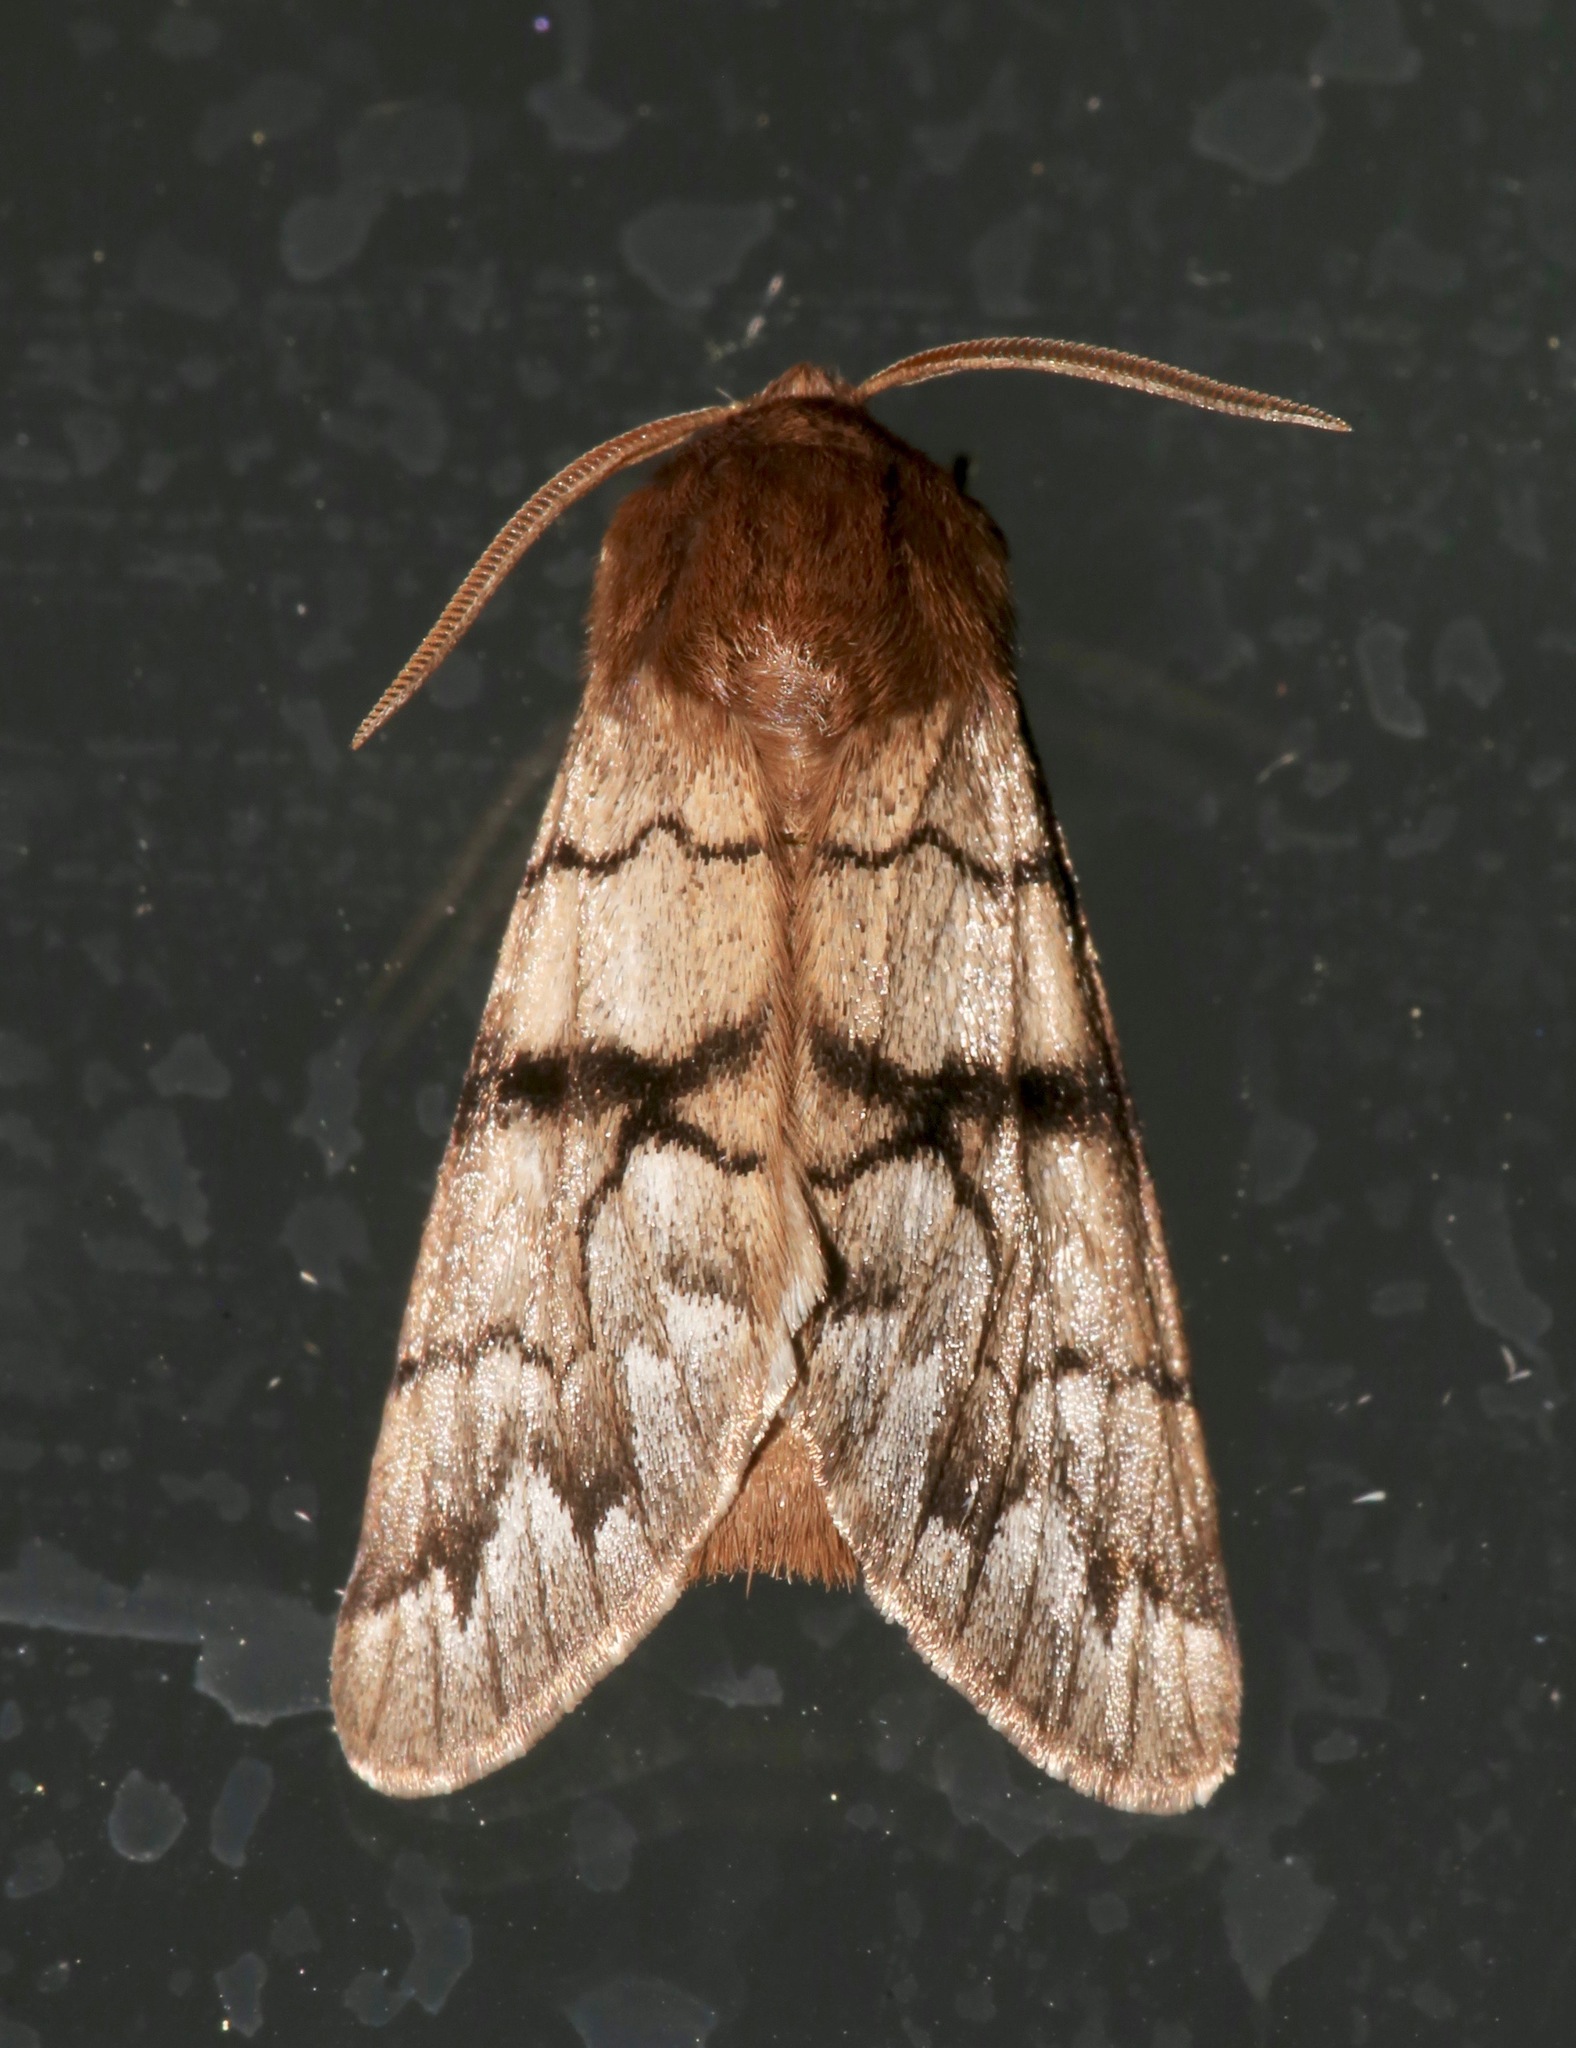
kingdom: Animalia
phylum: Arthropoda
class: Insecta
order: Lepidoptera
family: Noctuidae
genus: Panthea
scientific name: Panthea furcilla
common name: Eastern panthea moth
